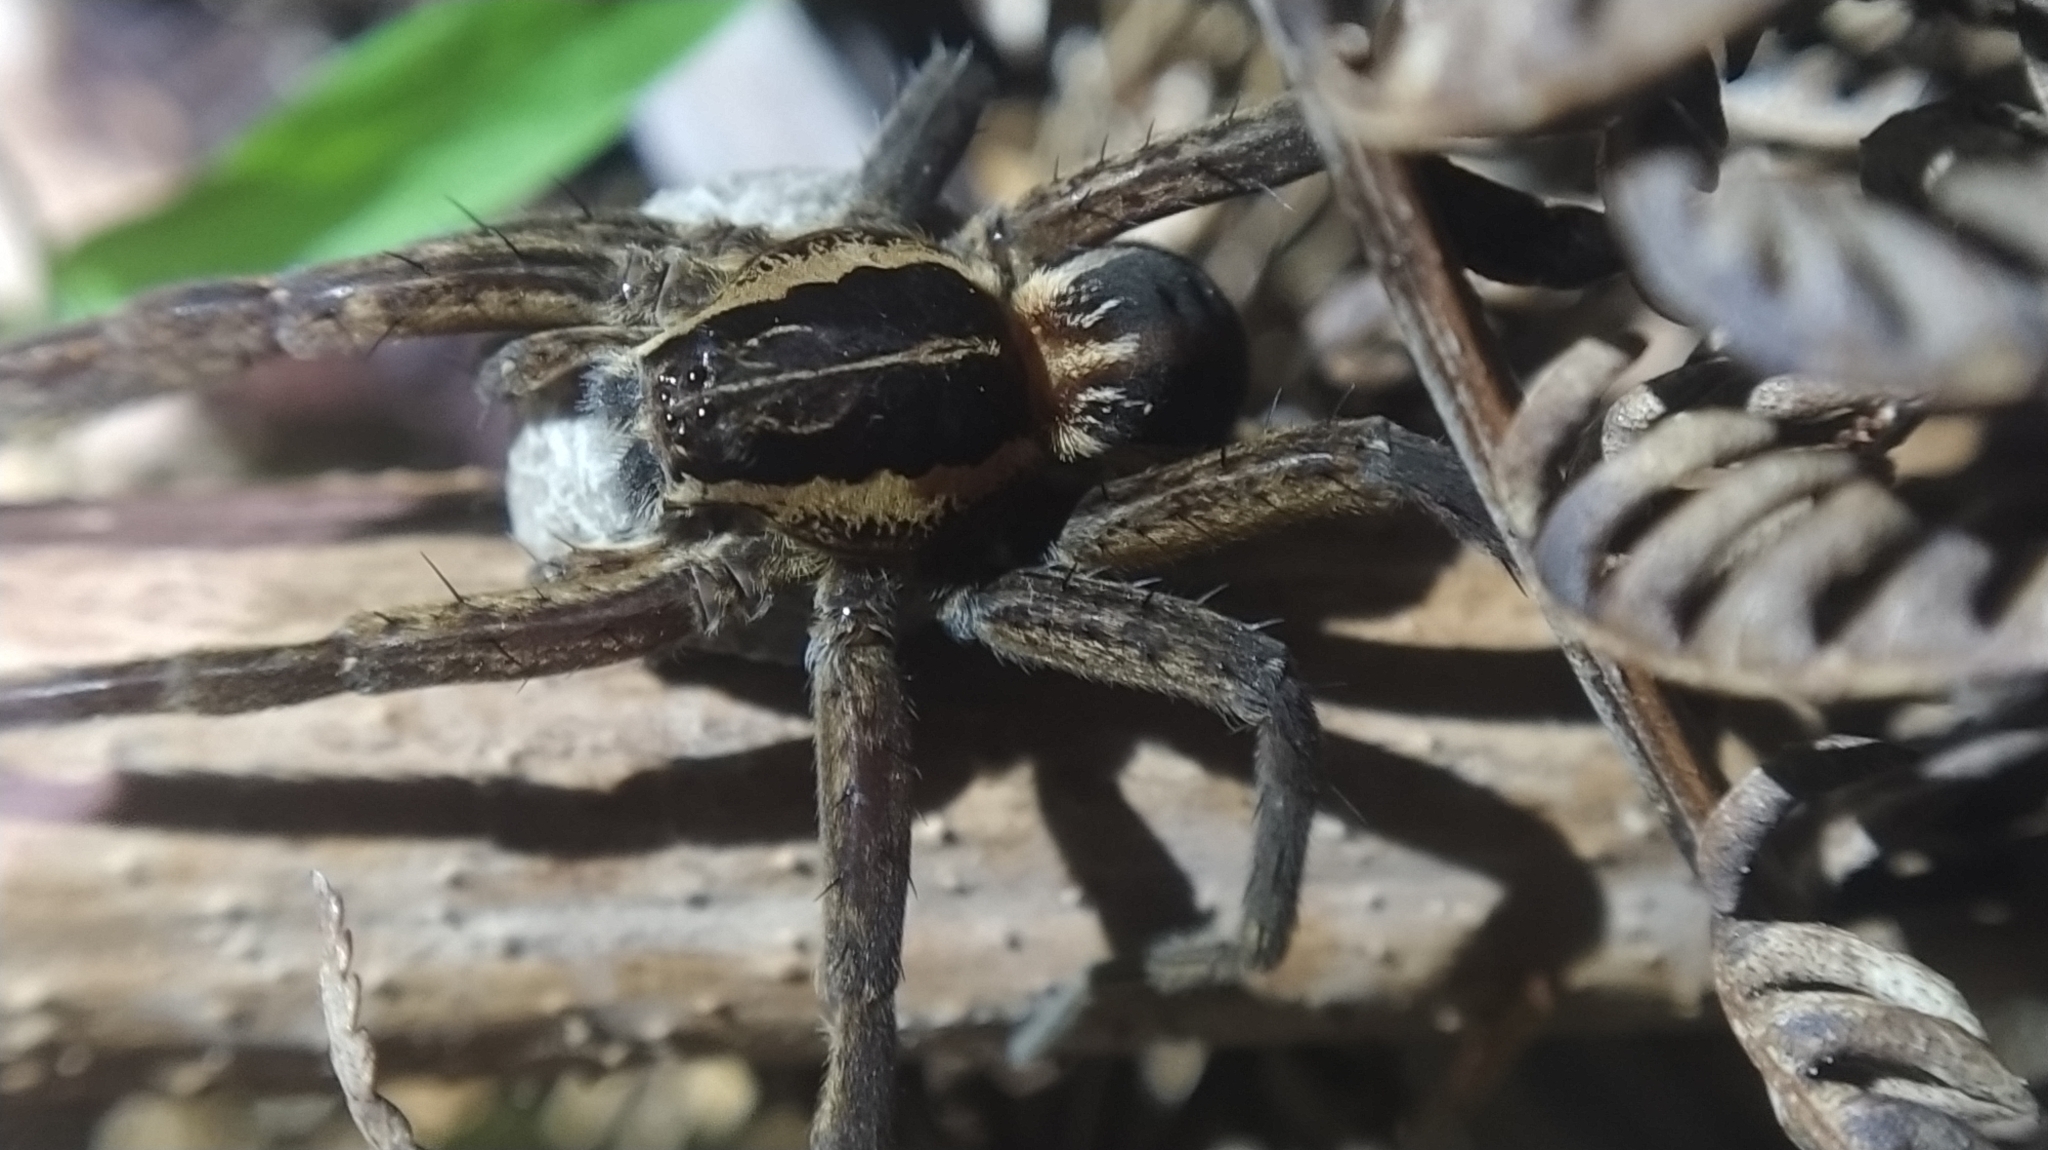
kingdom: Animalia
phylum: Arthropoda
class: Arachnida
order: Araneae
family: Pisauridae
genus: Dolomedes
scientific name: Dolomedes minor
